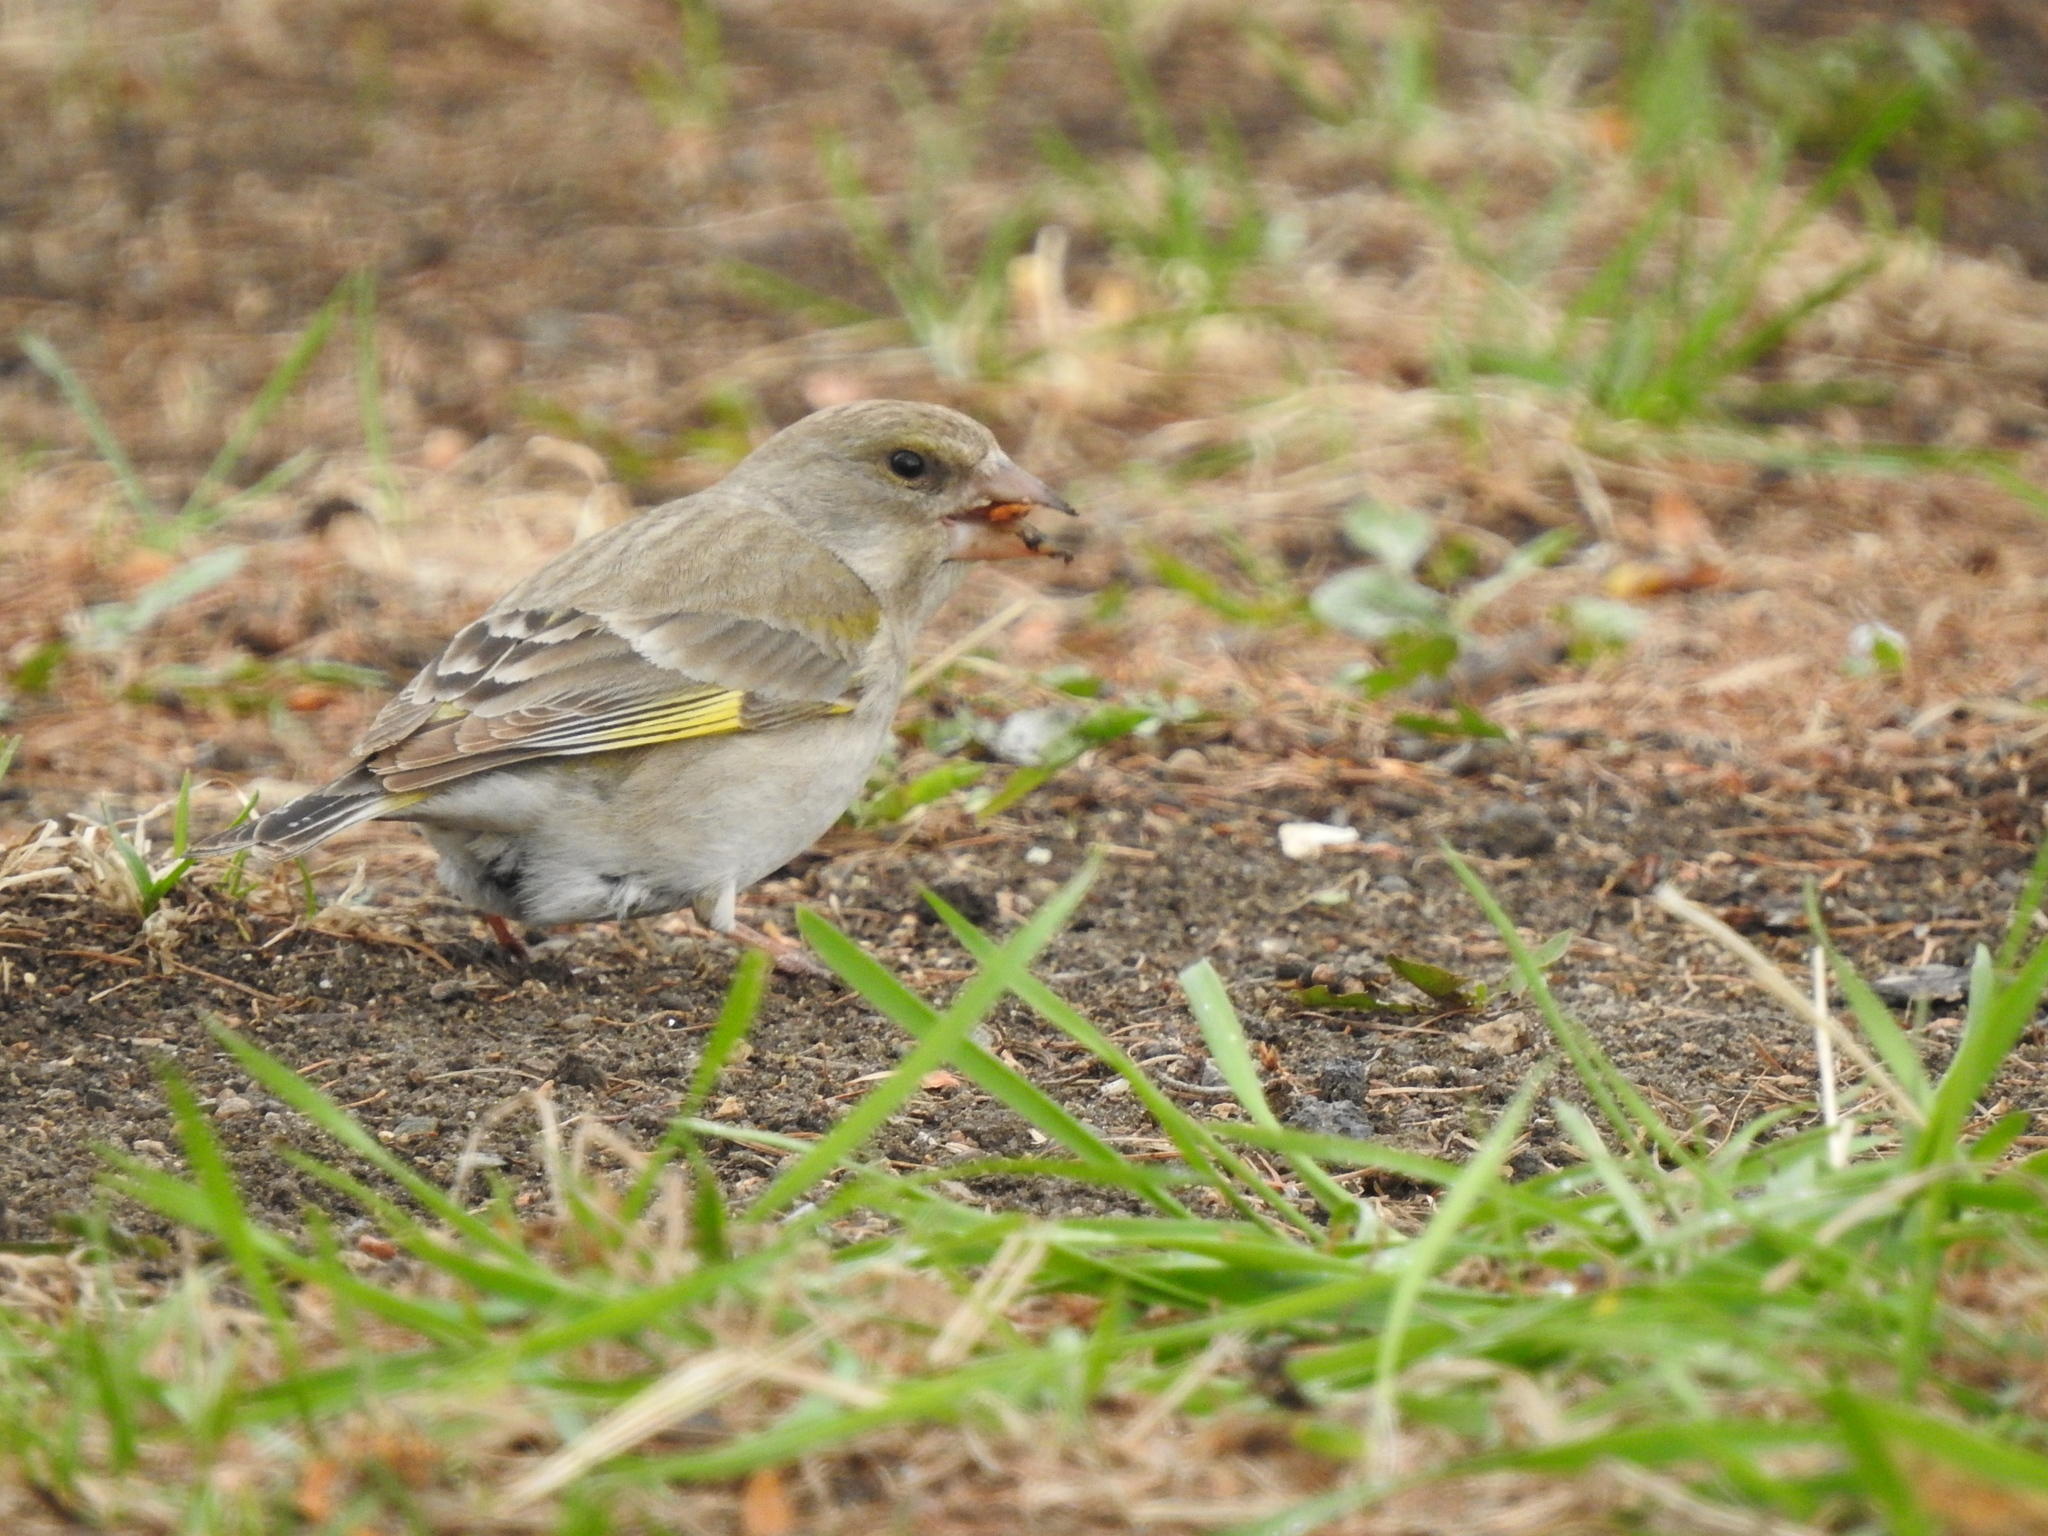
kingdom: Plantae
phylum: Tracheophyta
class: Liliopsida
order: Poales
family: Poaceae
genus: Chloris
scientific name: Chloris chloris
